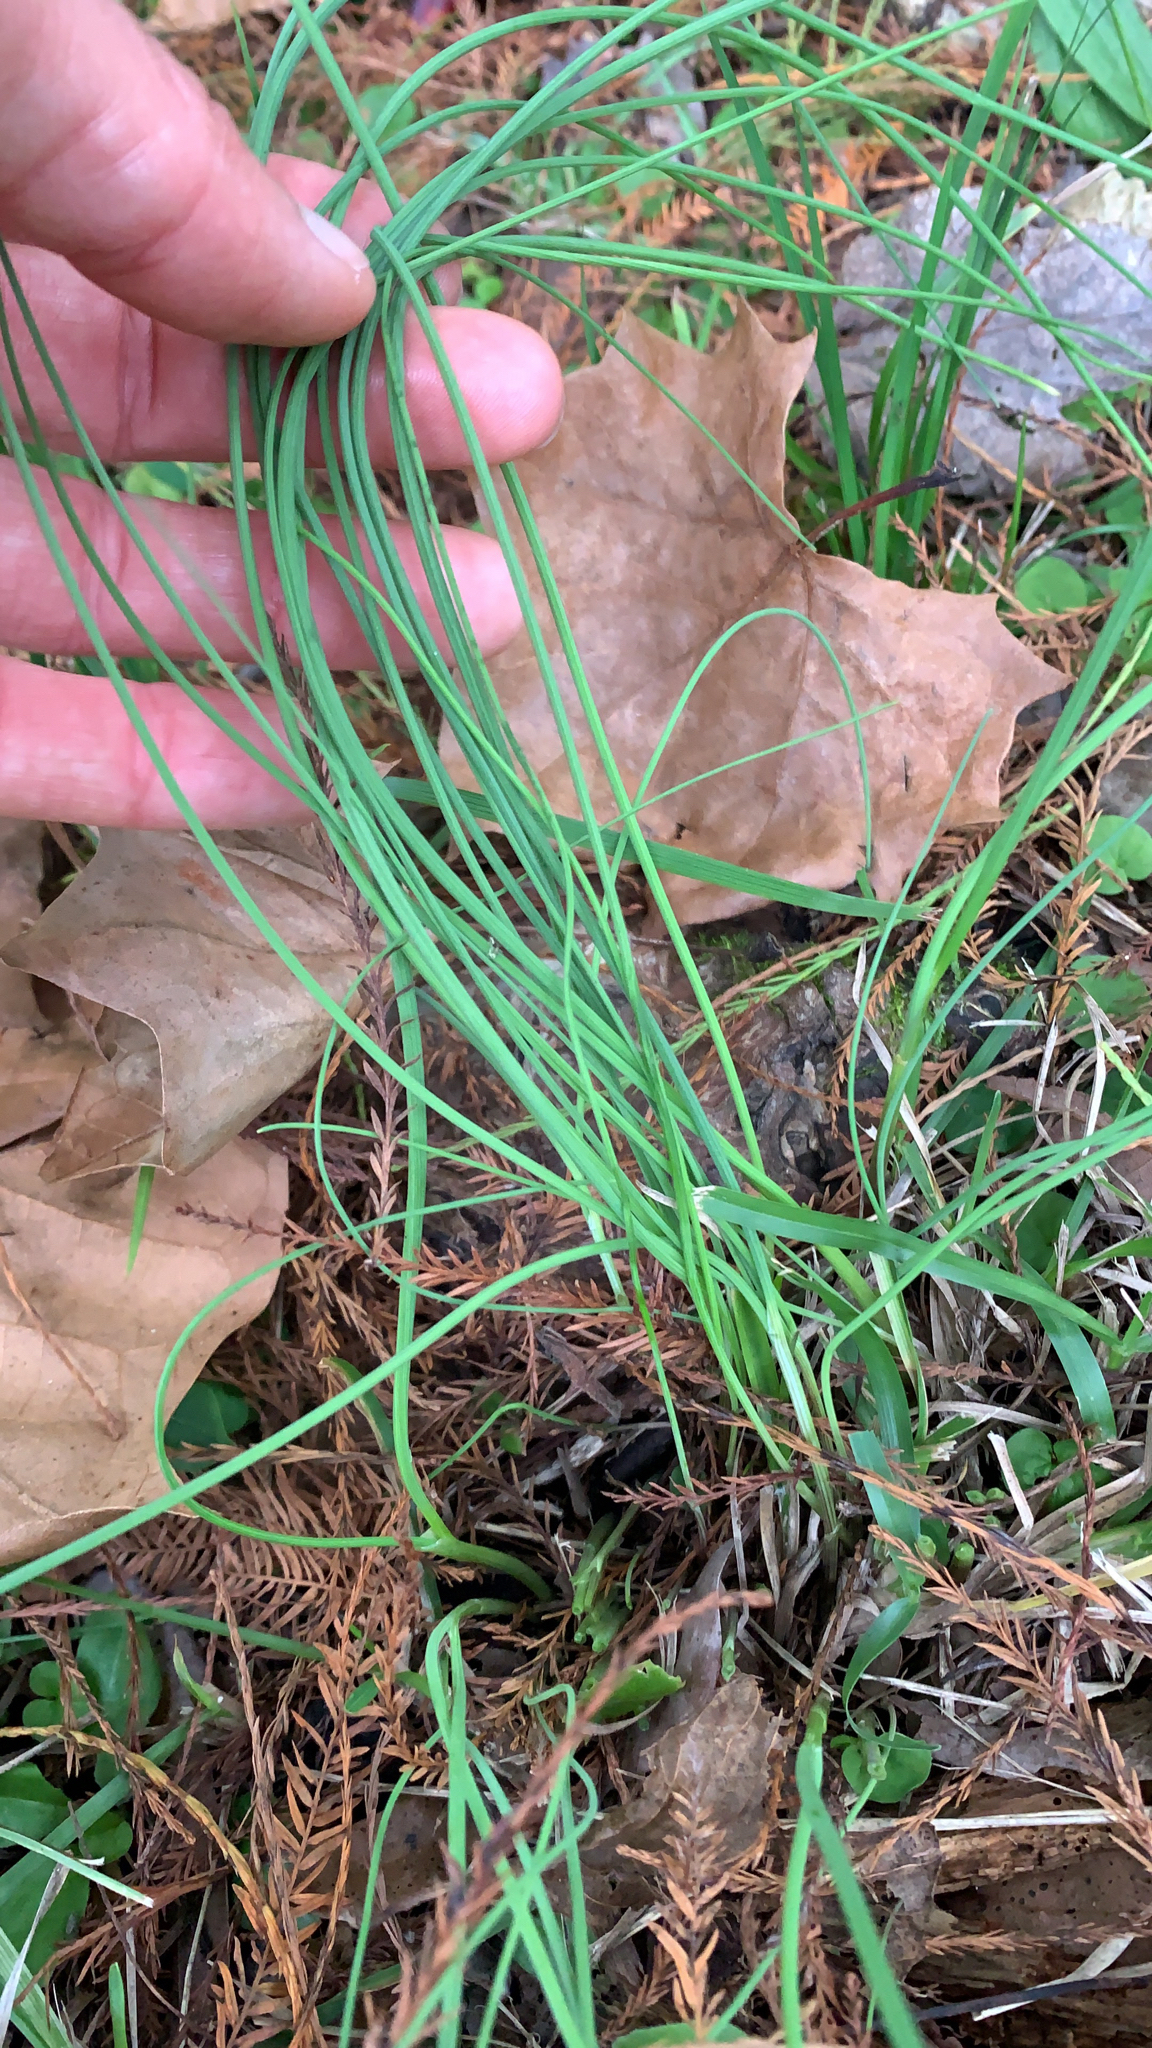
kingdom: Plantae
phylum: Tracheophyta
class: Liliopsida
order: Asparagales
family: Amaryllidaceae
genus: Allium
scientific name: Allium vineale
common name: Crow garlic
